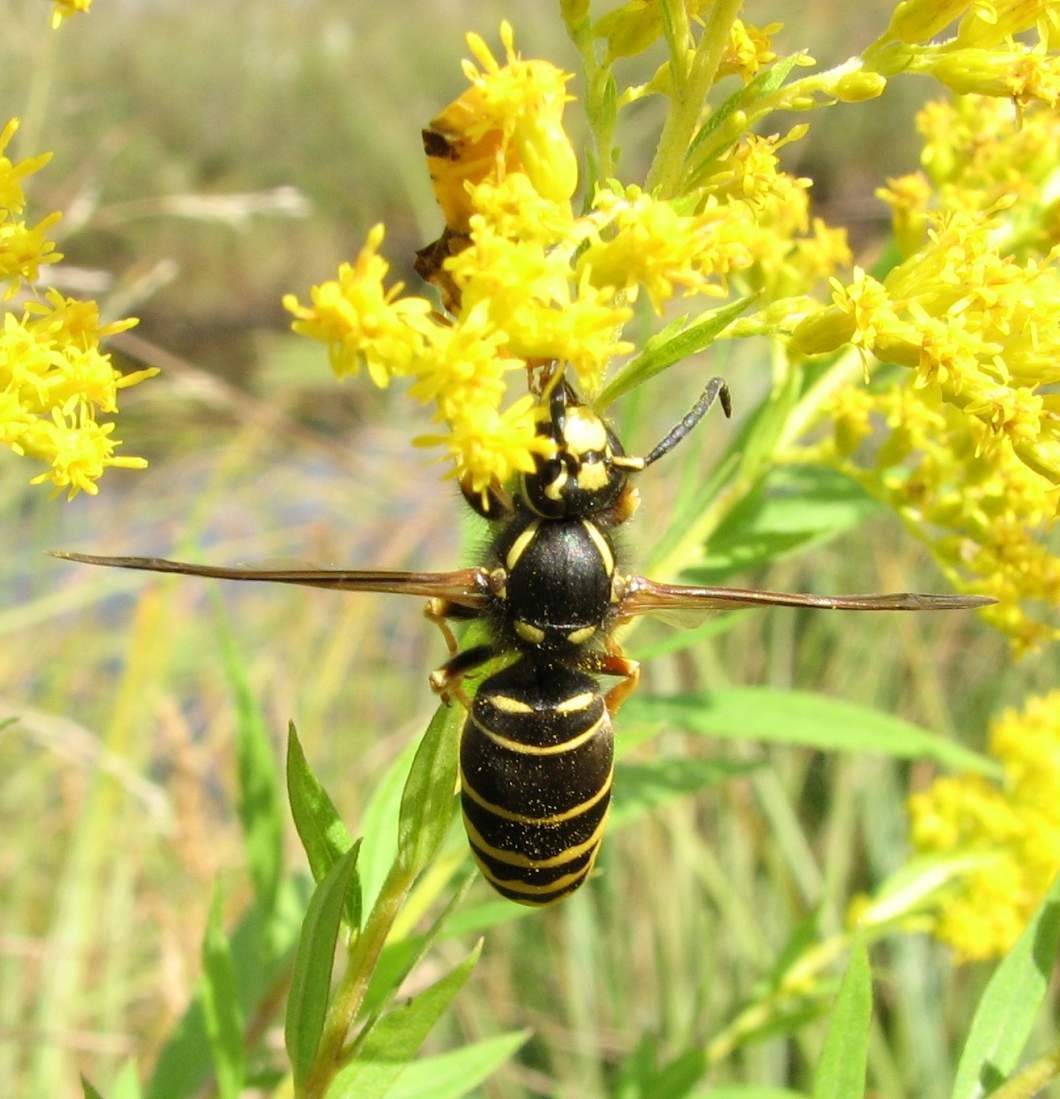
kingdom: Animalia
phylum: Arthropoda
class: Insecta
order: Hymenoptera
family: Vespidae
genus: Vespula
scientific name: Vespula vidua
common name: Widow yellowjacket
